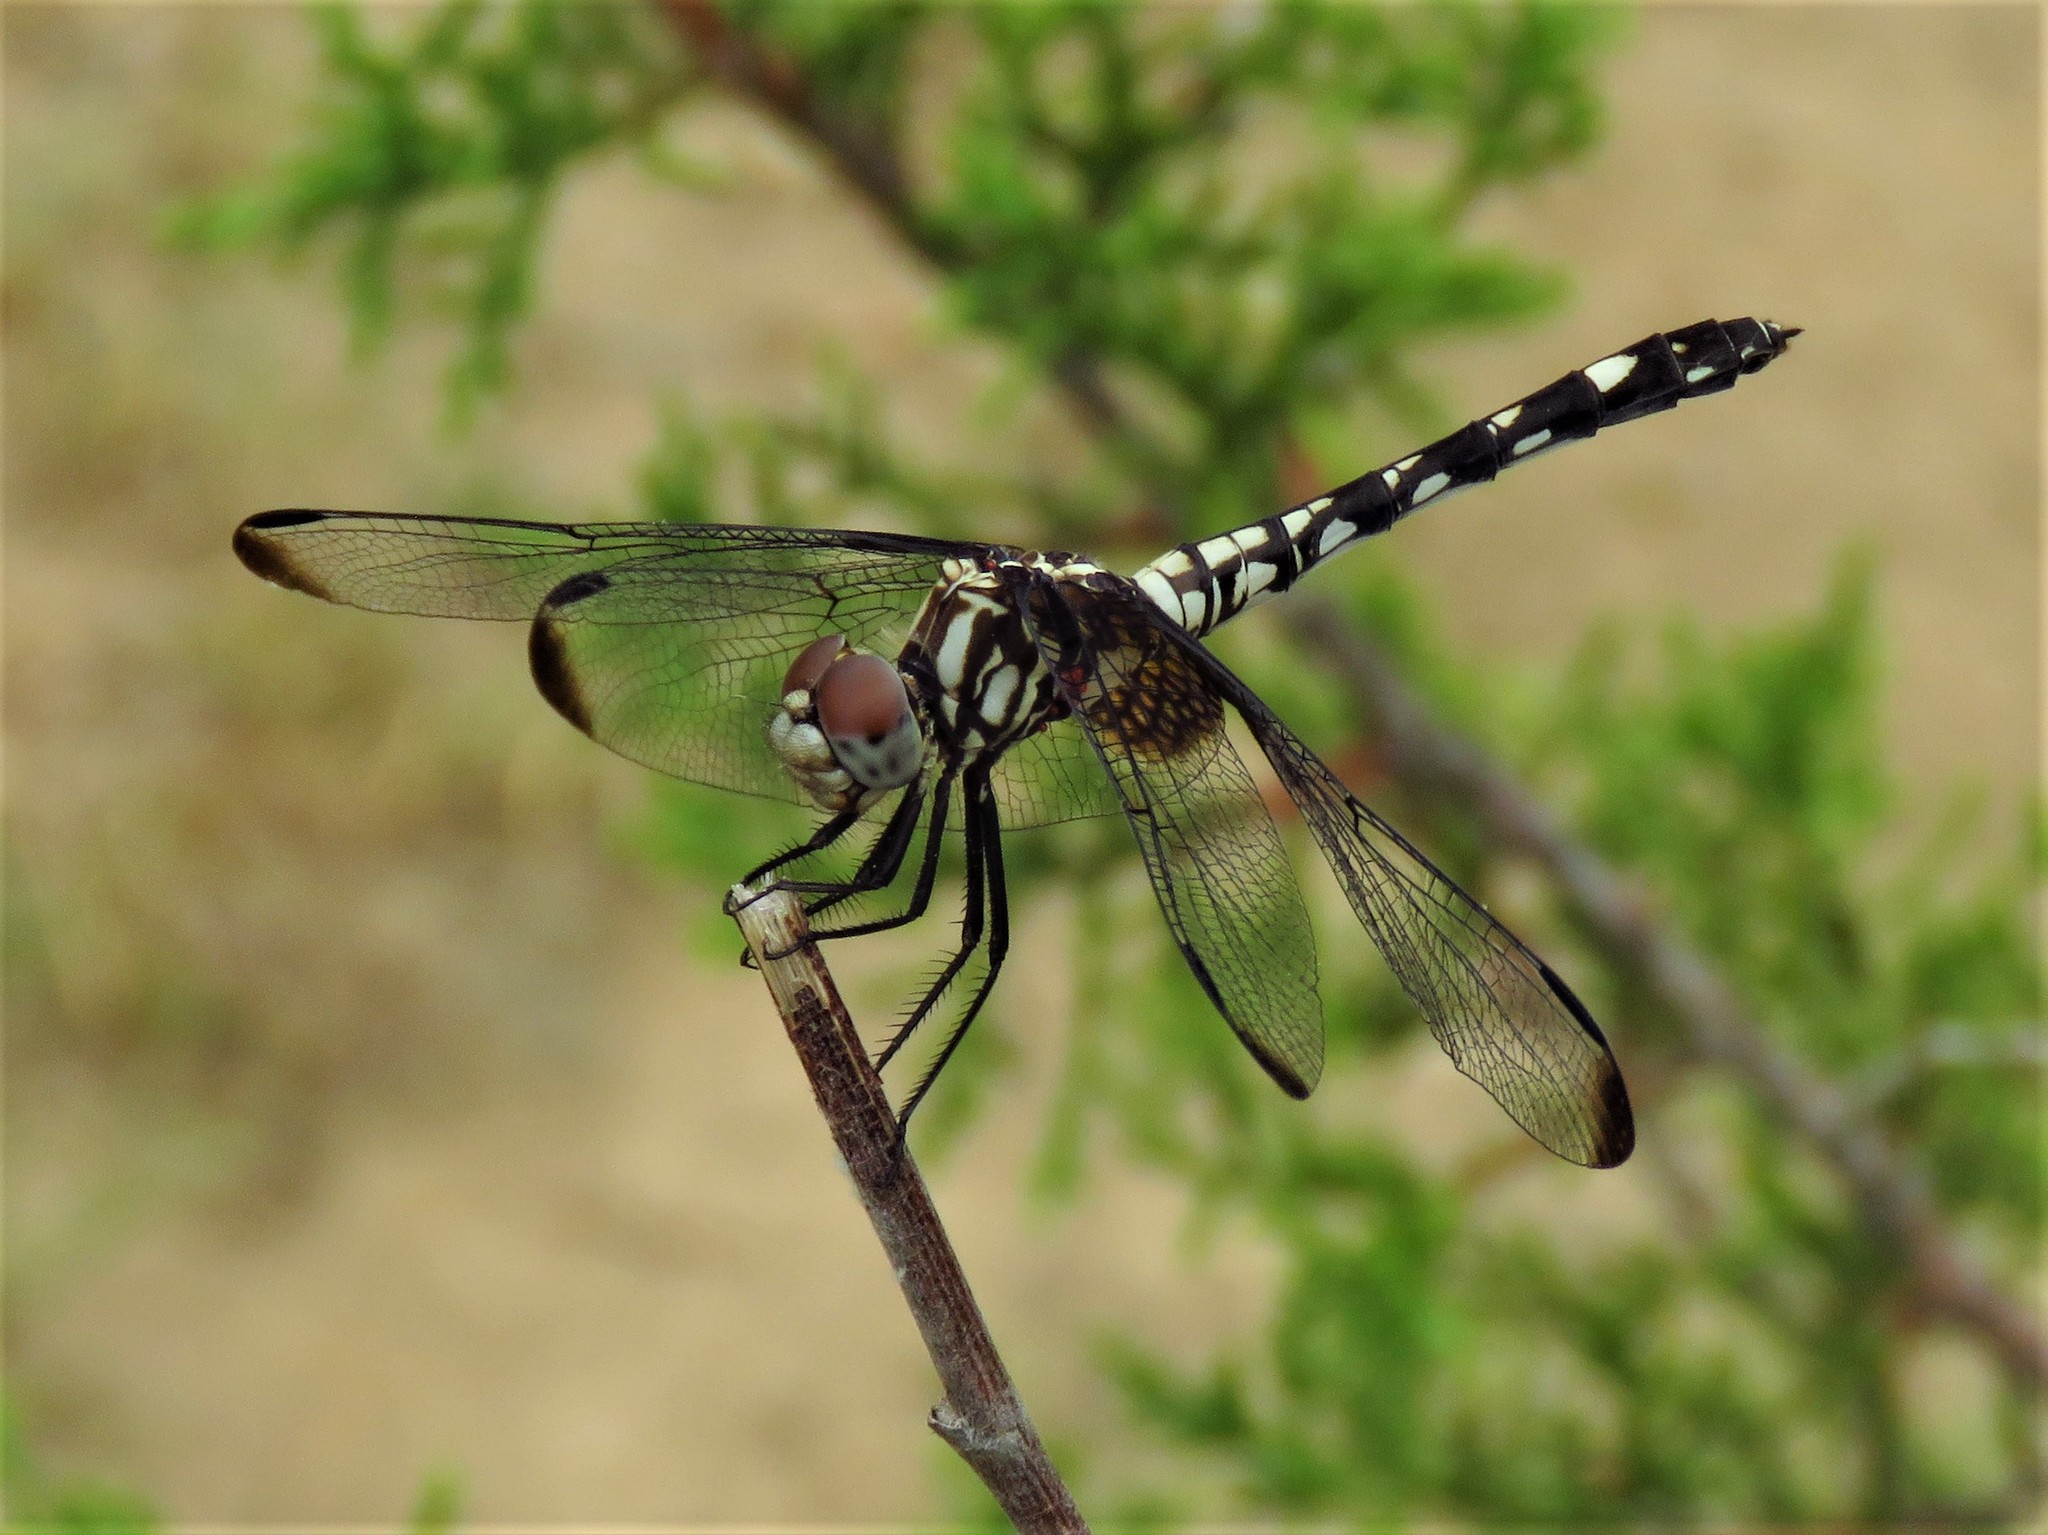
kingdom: Animalia
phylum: Arthropoda
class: Insecta
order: Odonata
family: Libellulidae
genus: Dythemis
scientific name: Dythemis fugax
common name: Checkered setwing
